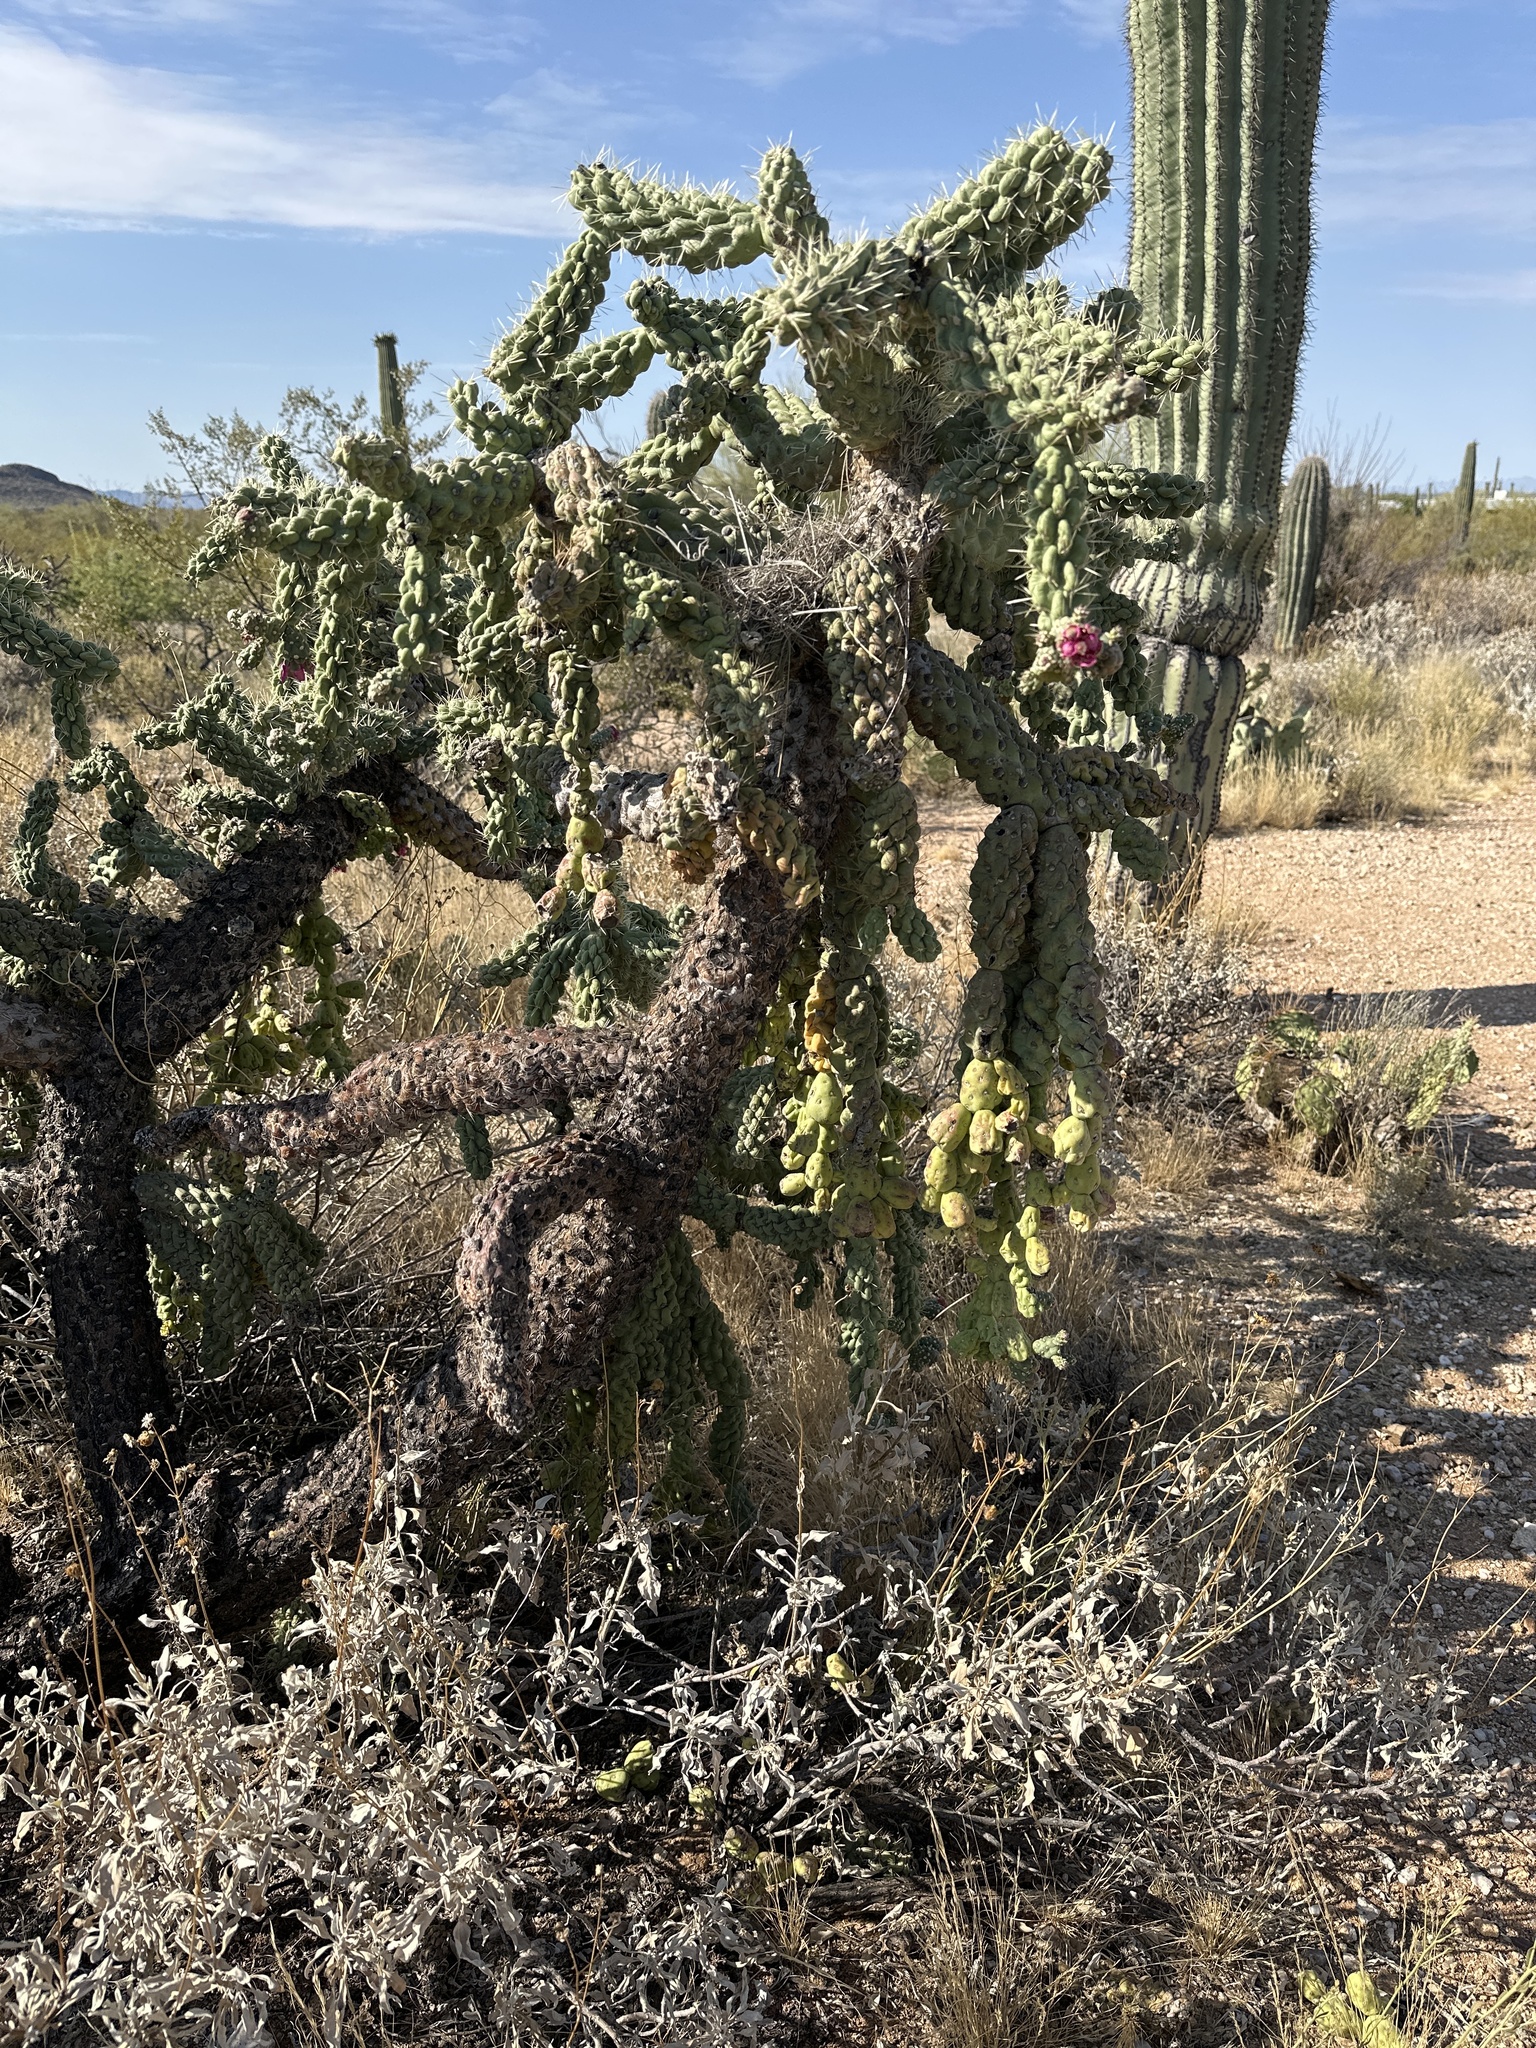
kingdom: Plantae
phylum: Tracheophyta
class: Magnoliopsida
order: Caryophyllales
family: Cactaceae
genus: Cylindropuntia
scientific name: Cylindropuntia fulgida
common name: Jumping cholla
